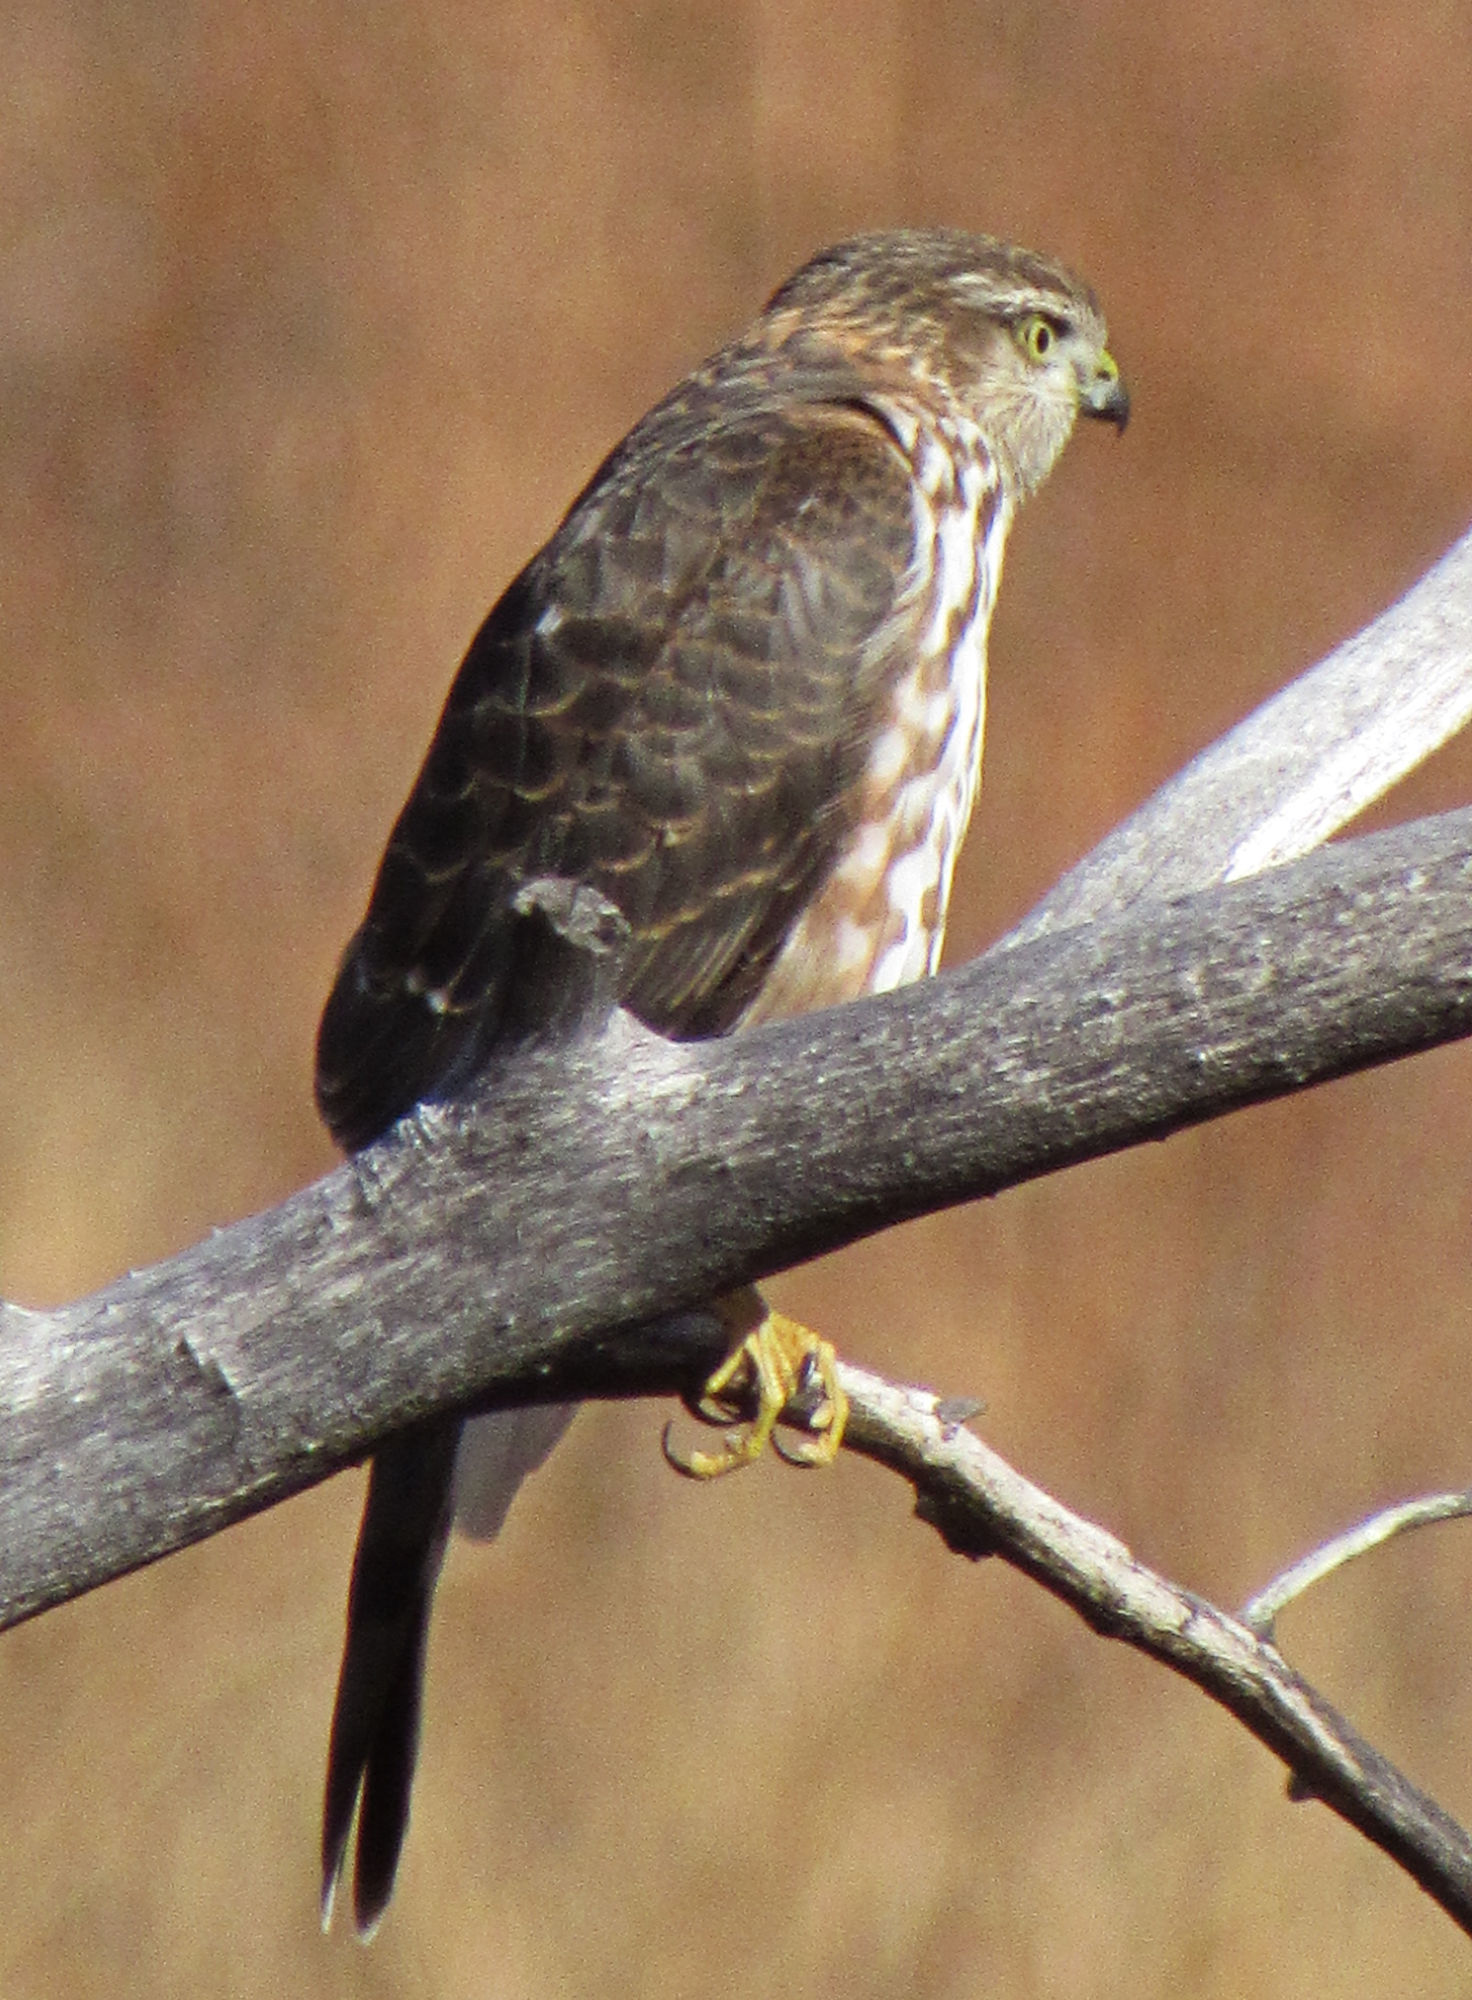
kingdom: Animalia
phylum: Chordata
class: Aves
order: Accipitriformes
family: Accipitridae
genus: Accipiter
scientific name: Accipiter striatus
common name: Sharp-shinned hawk
